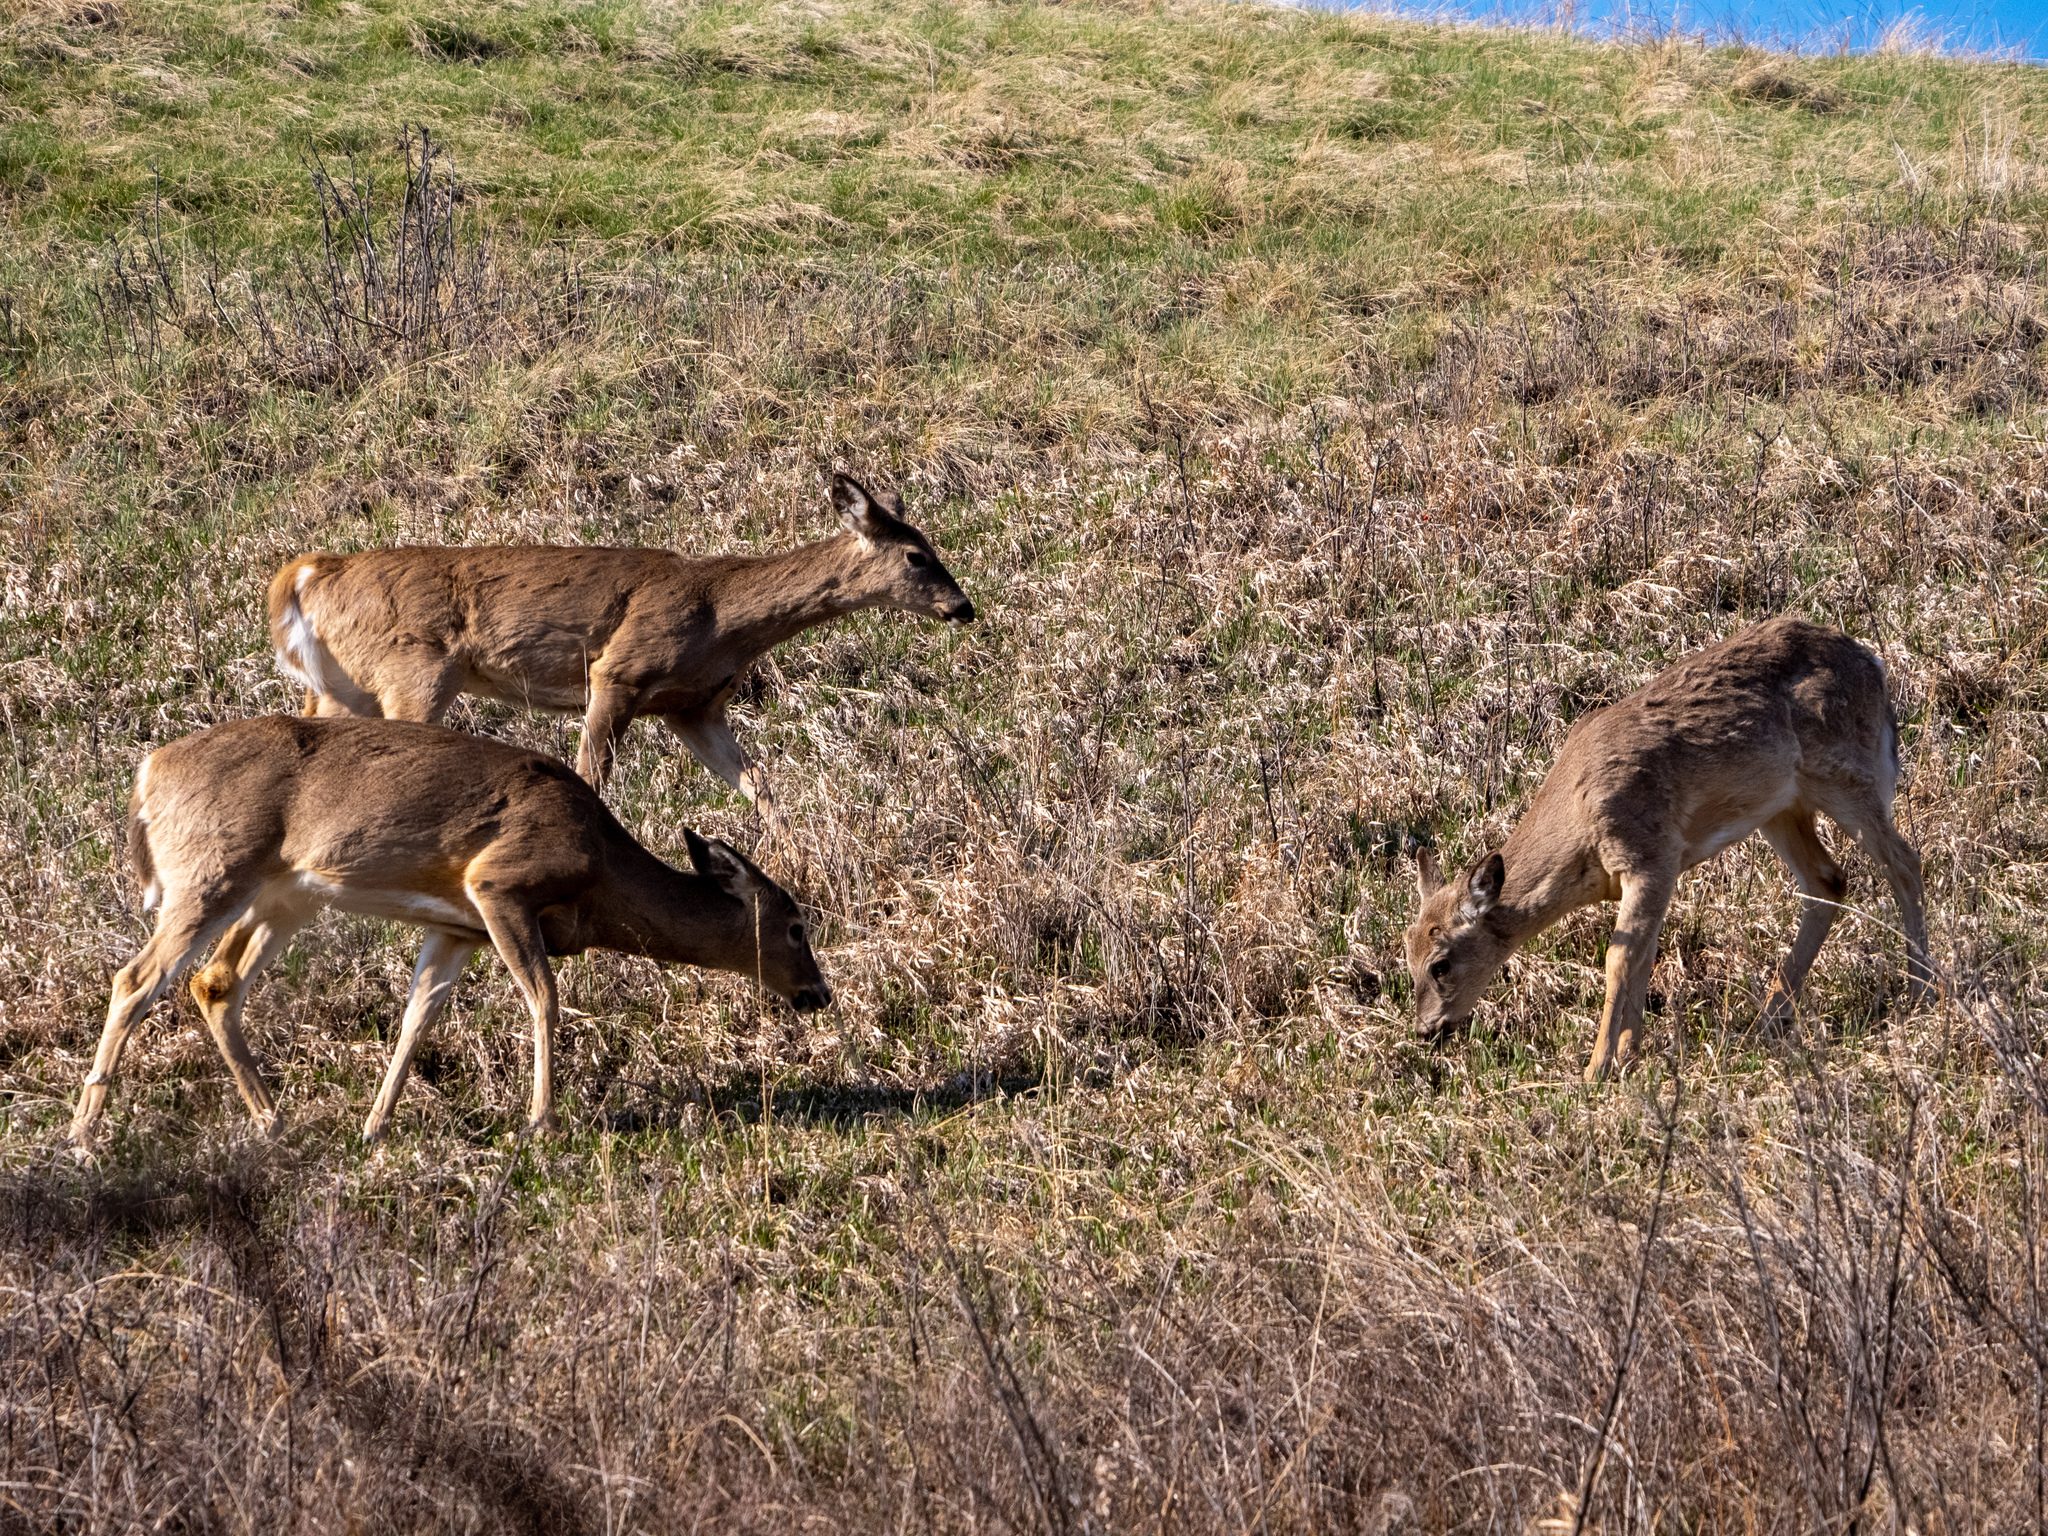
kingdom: Animalia
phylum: Chordata
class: Mammalia
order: Artiodactyla
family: Cervidae
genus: Odocoileus
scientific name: Odocoileus virginianus
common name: White-tailed deer
